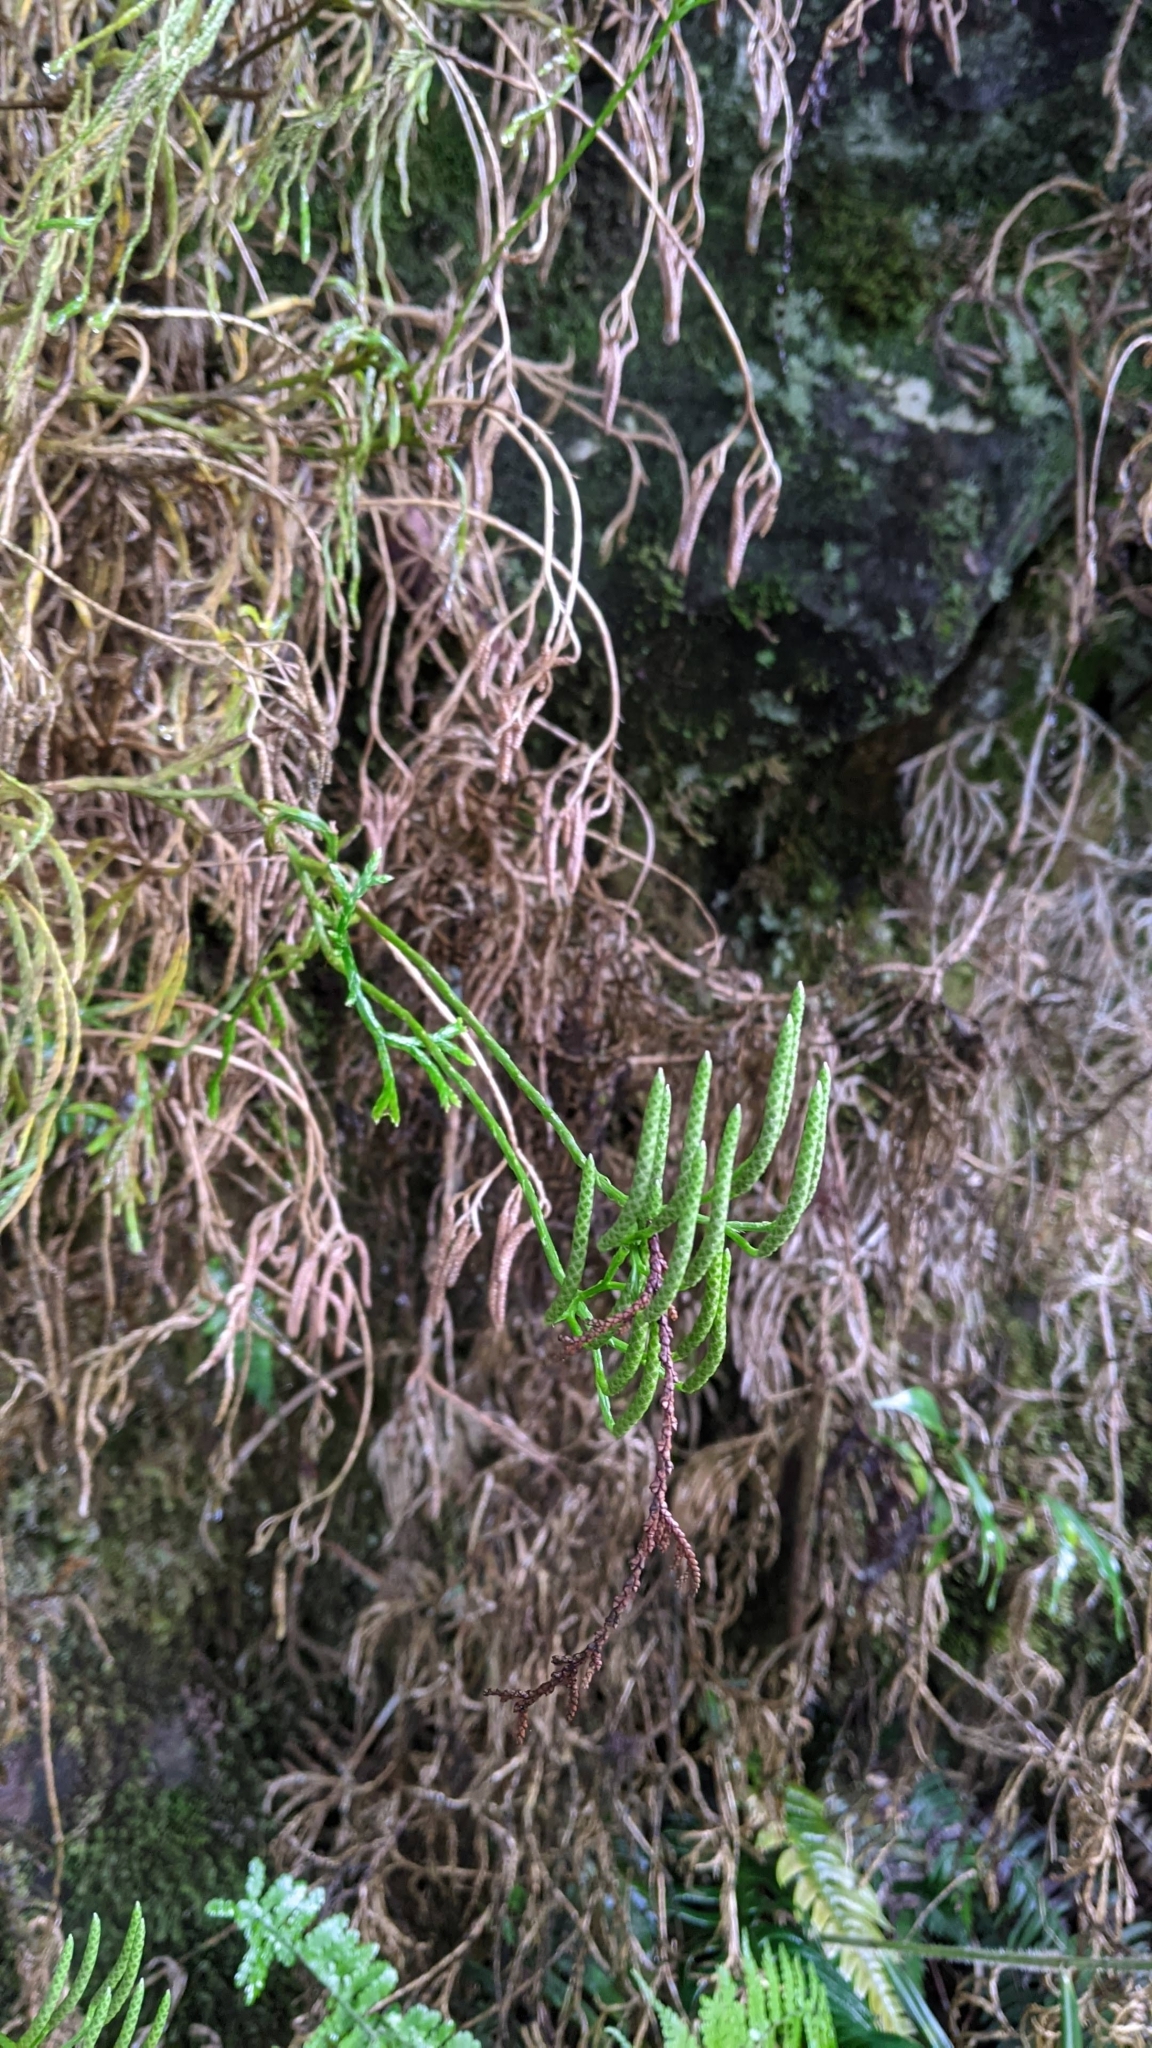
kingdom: Plantae
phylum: Tracheophyta
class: Lycopodiopsida
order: Lycopodiales
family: Lycopodiaceae
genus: Diphasiastrum
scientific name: Diphasiastrum complanatum
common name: Northern running-pine
